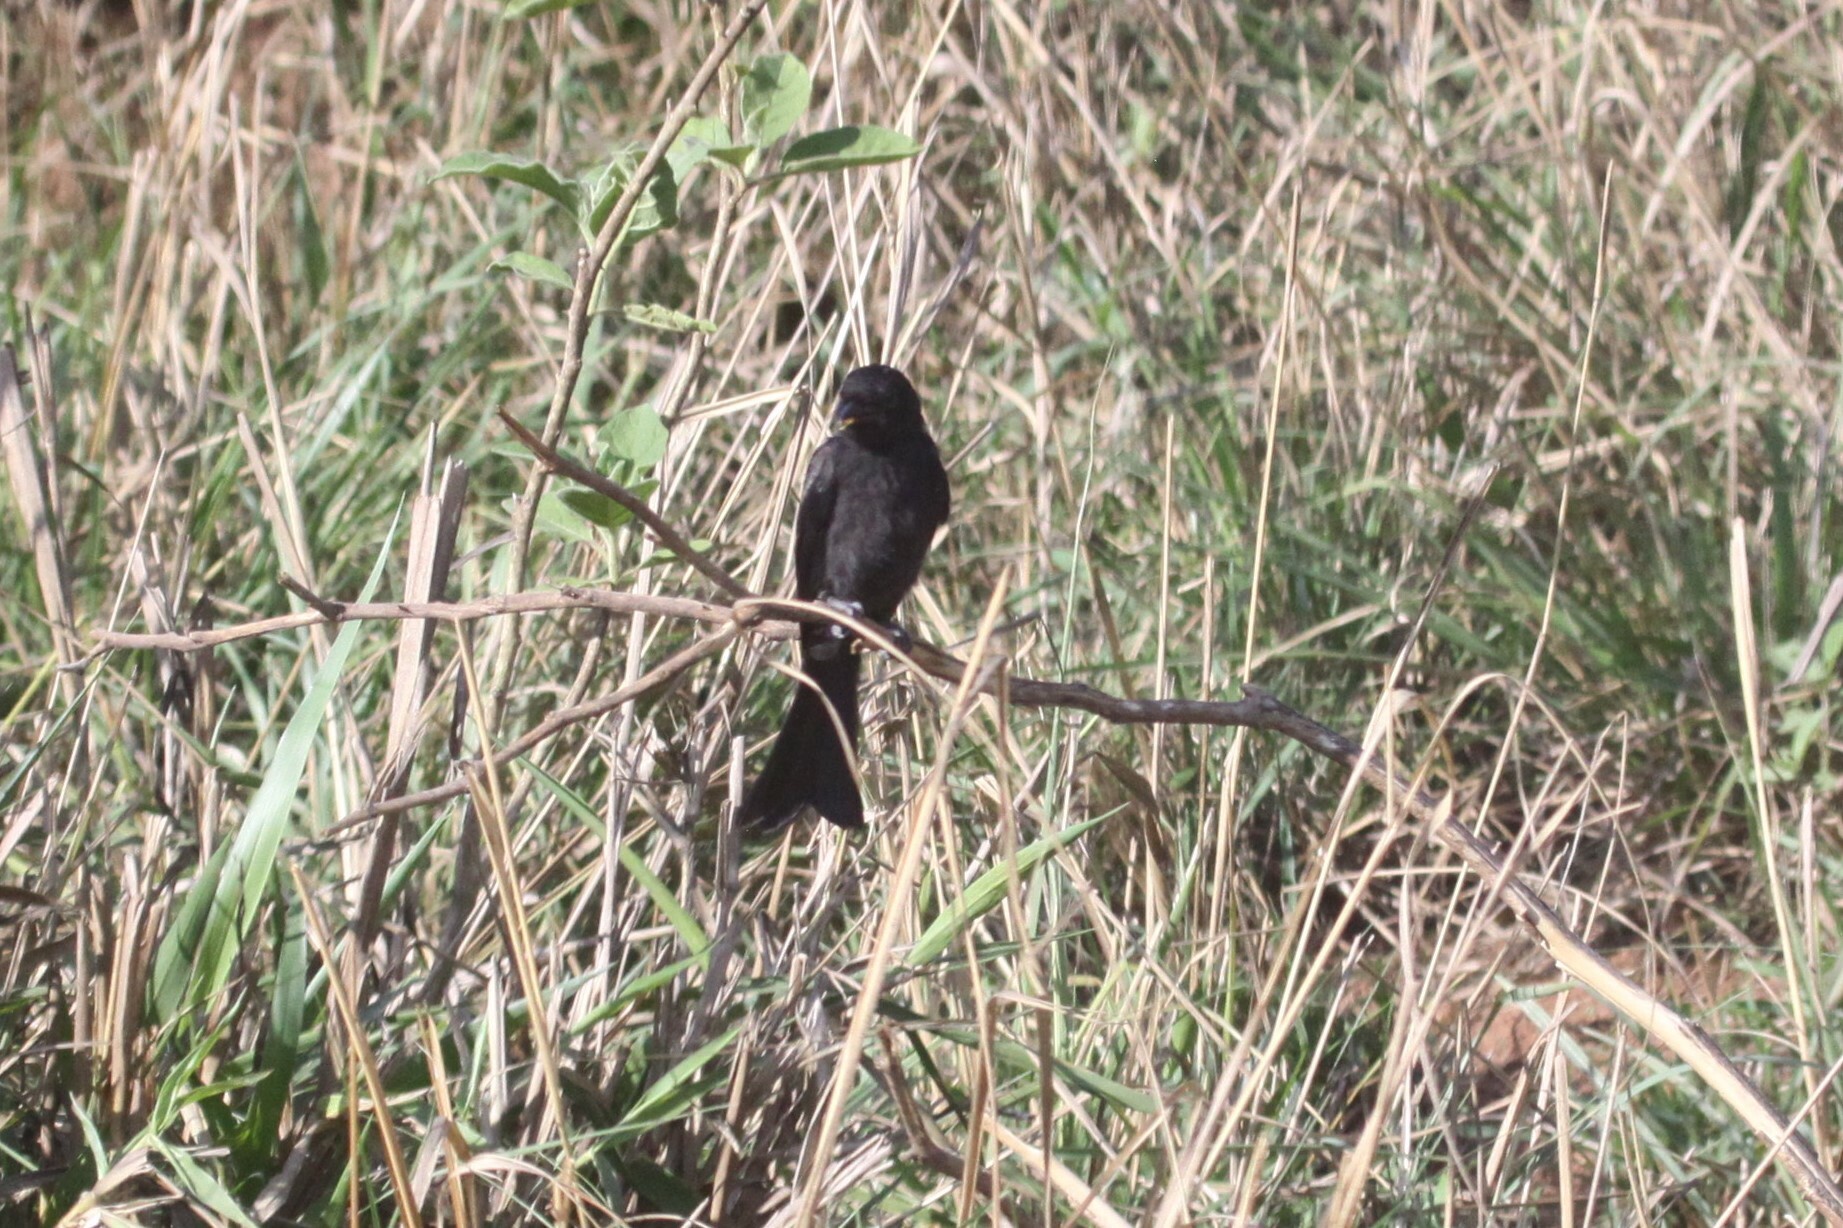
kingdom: Animalia
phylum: Chordata
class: Aves
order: Passeriformes
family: Dicruridae
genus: Dicrurus
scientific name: Dicrurus adsimilis
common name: Fork-tailed drongo
